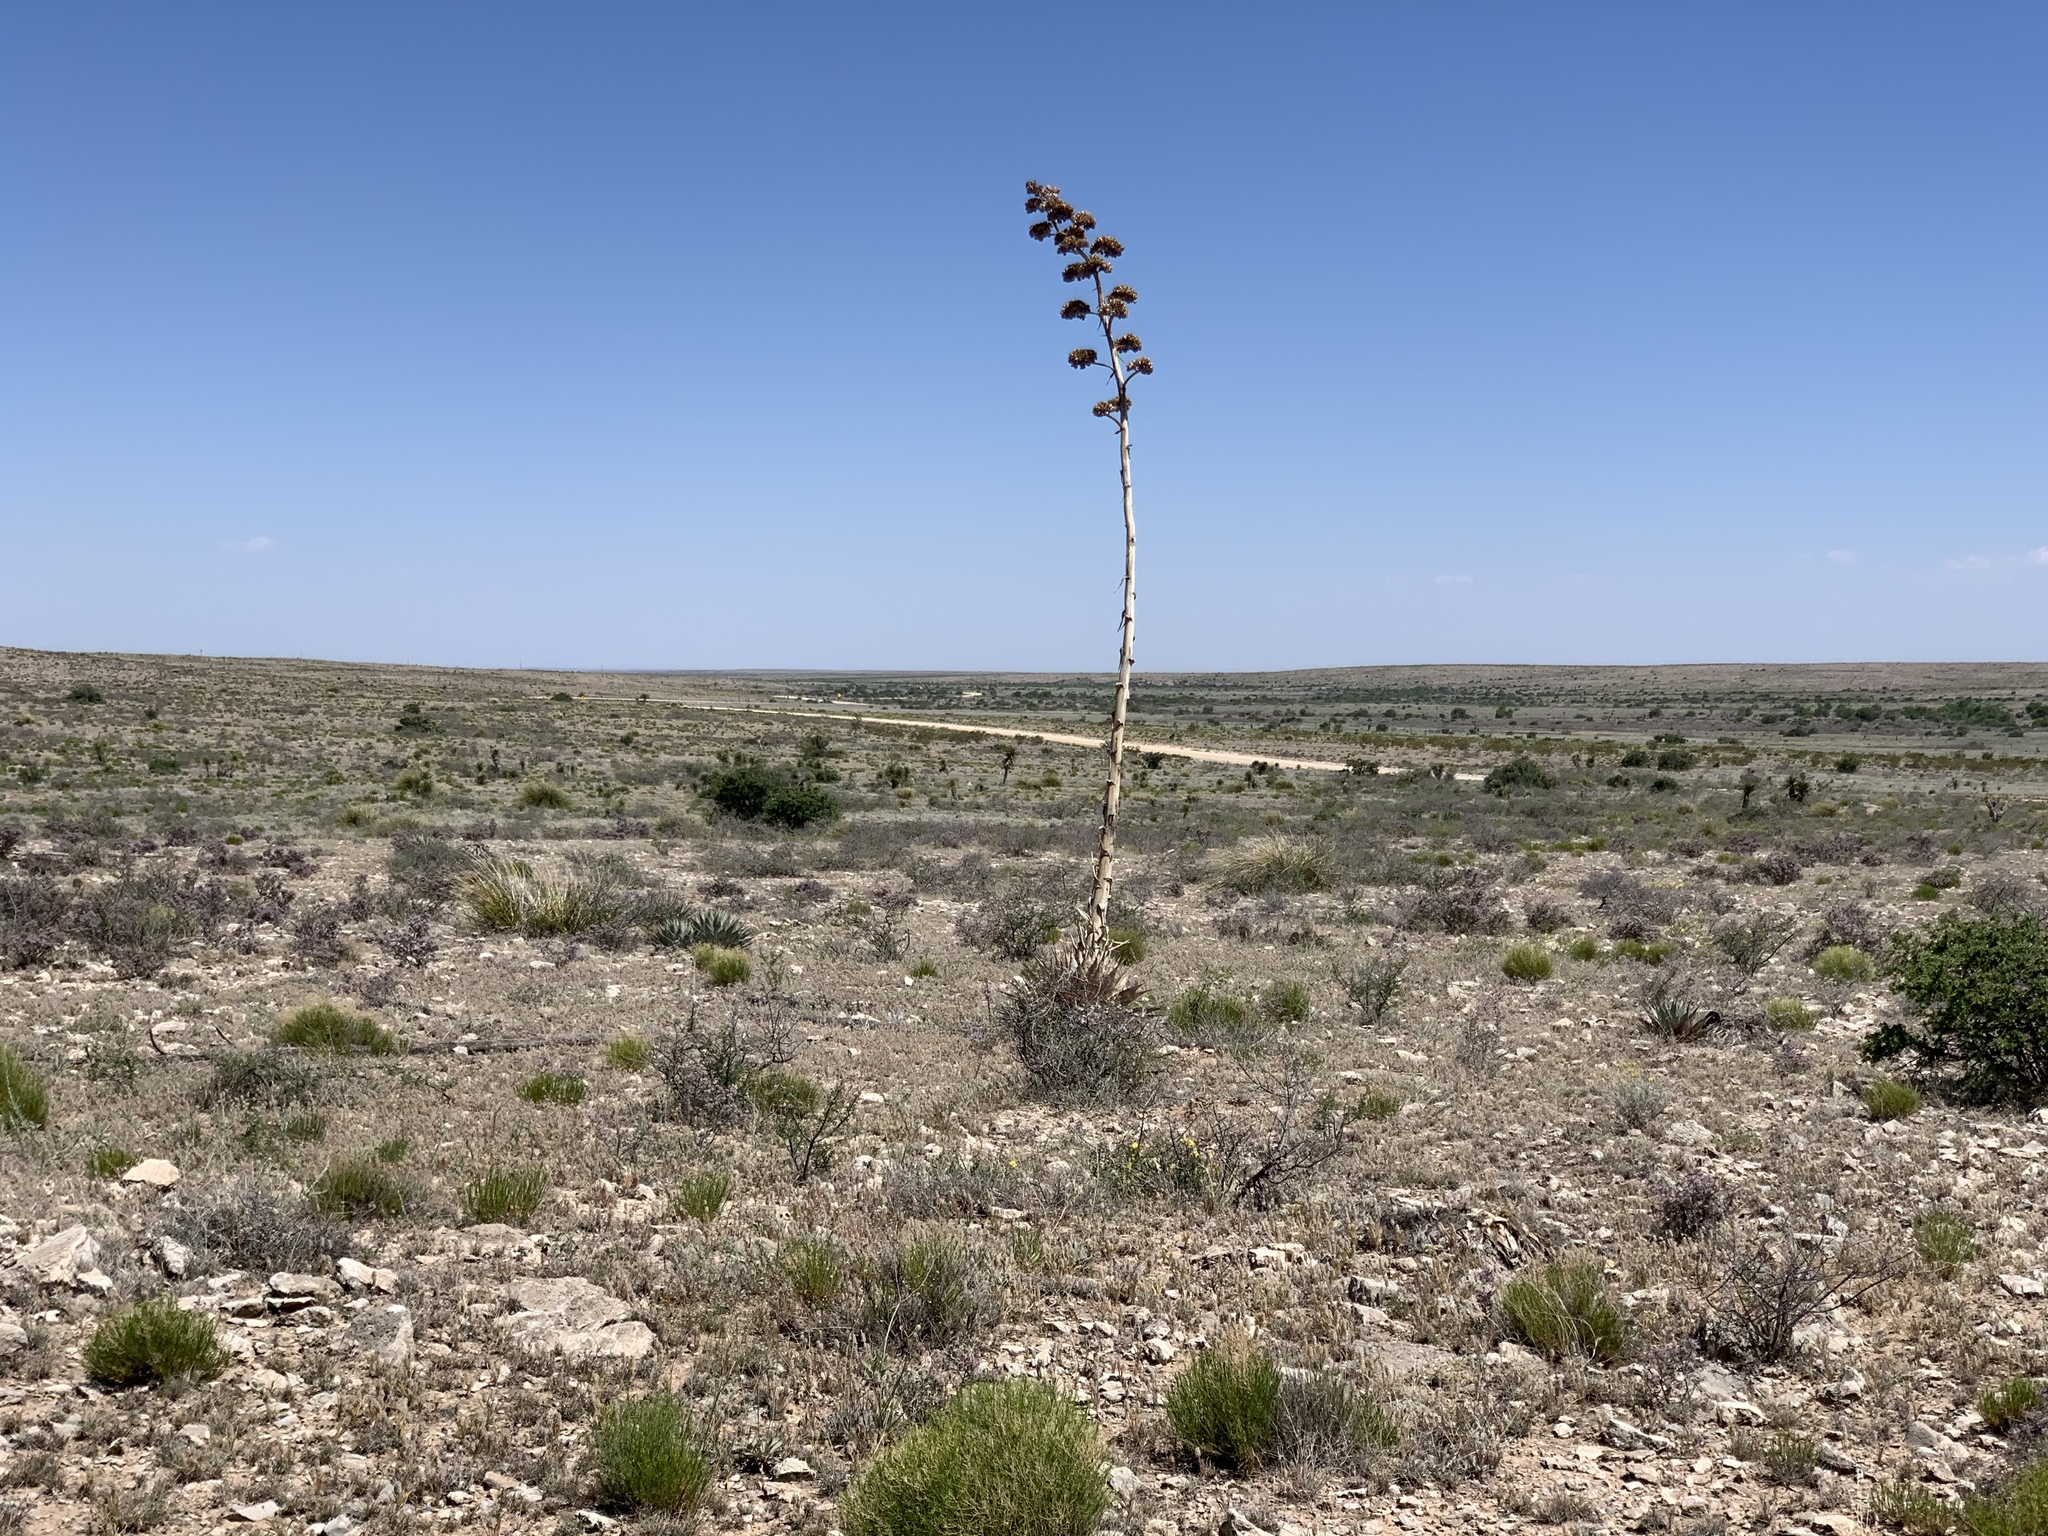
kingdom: Plantae
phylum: Tracheophyta
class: Liliopsida
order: Asparagales
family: Asparagaceae
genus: Agave
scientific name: Agave parryi
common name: Parry's agave
